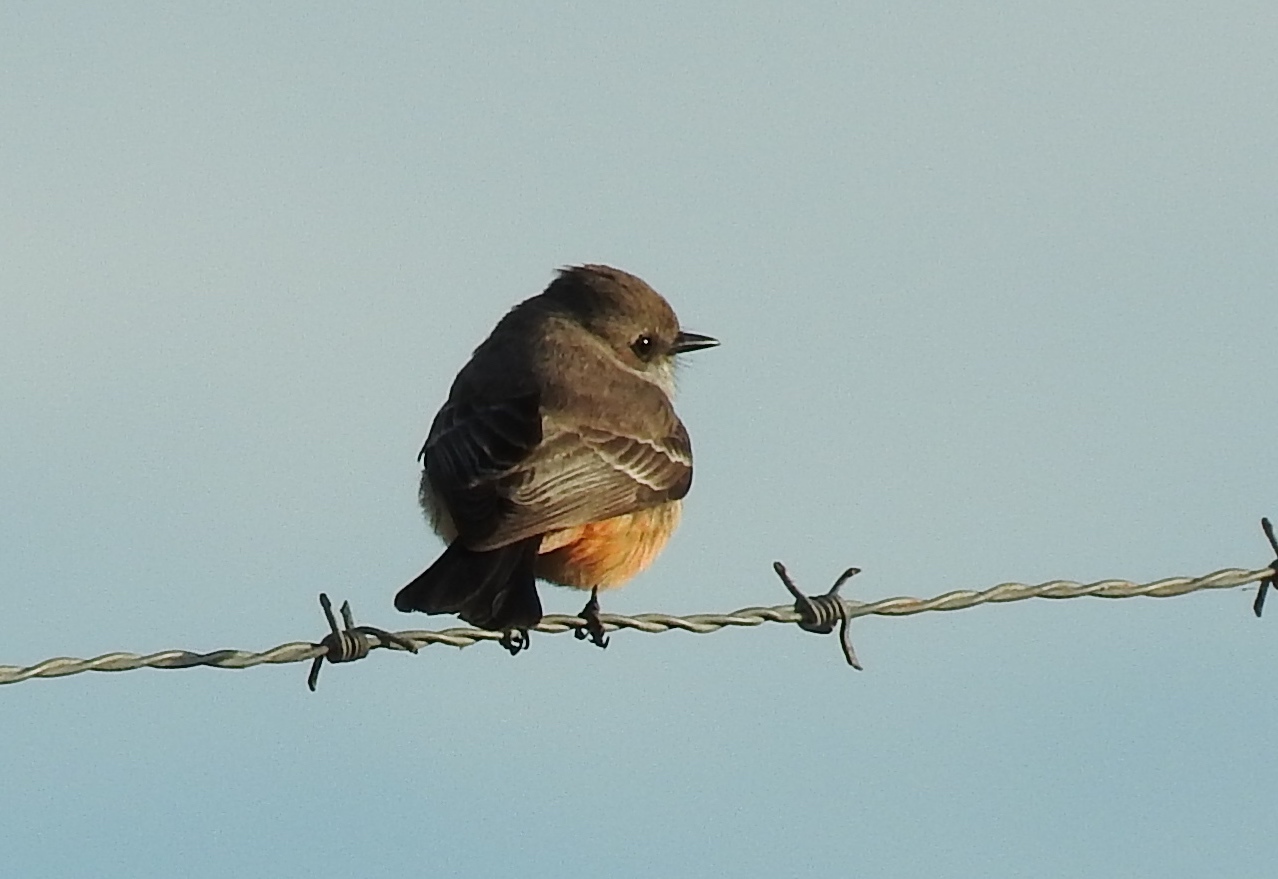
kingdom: Animalia
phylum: Chordata
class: Aves
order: Passeriformes
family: Tyrannidae
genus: Pyrocephalus
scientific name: Pyrocephalus rubinus
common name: Vermilion flycatcher
